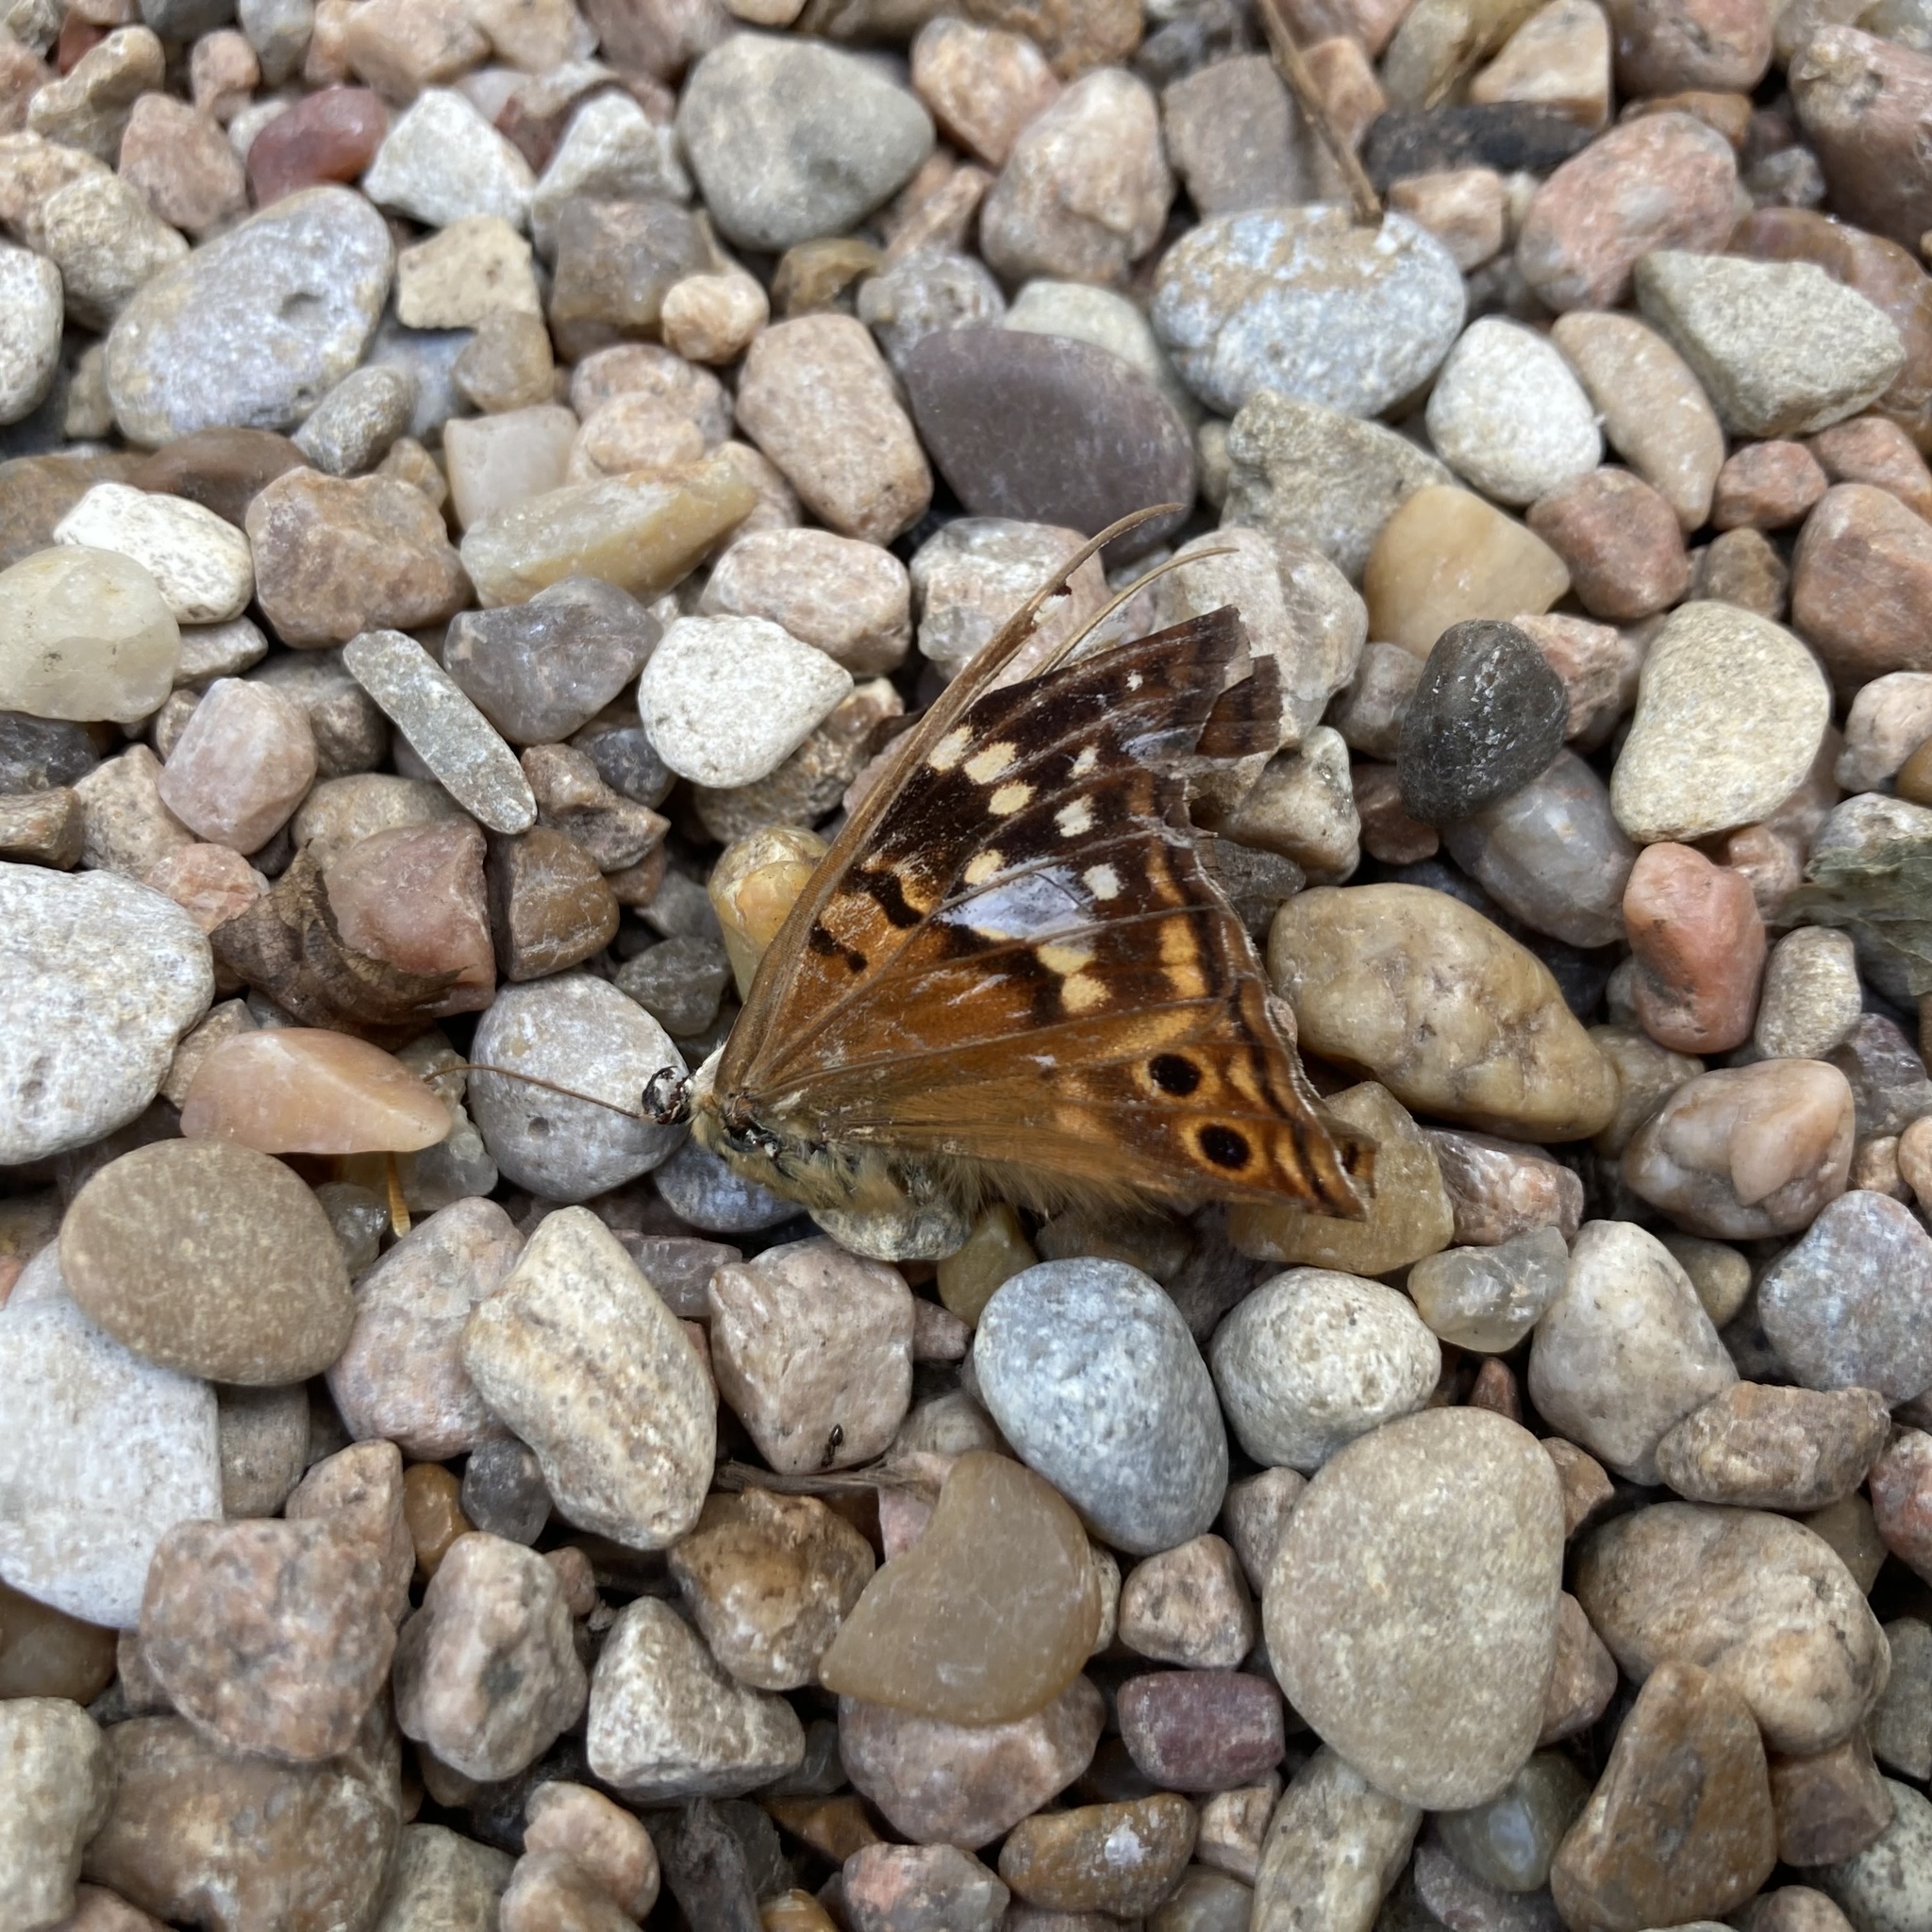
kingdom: Animalia
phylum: Arthropoda
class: Insecta
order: Lepidoptera
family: Nymphalidae
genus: Asterocampa
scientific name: Asterocampa clyton
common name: Tawny emperor
